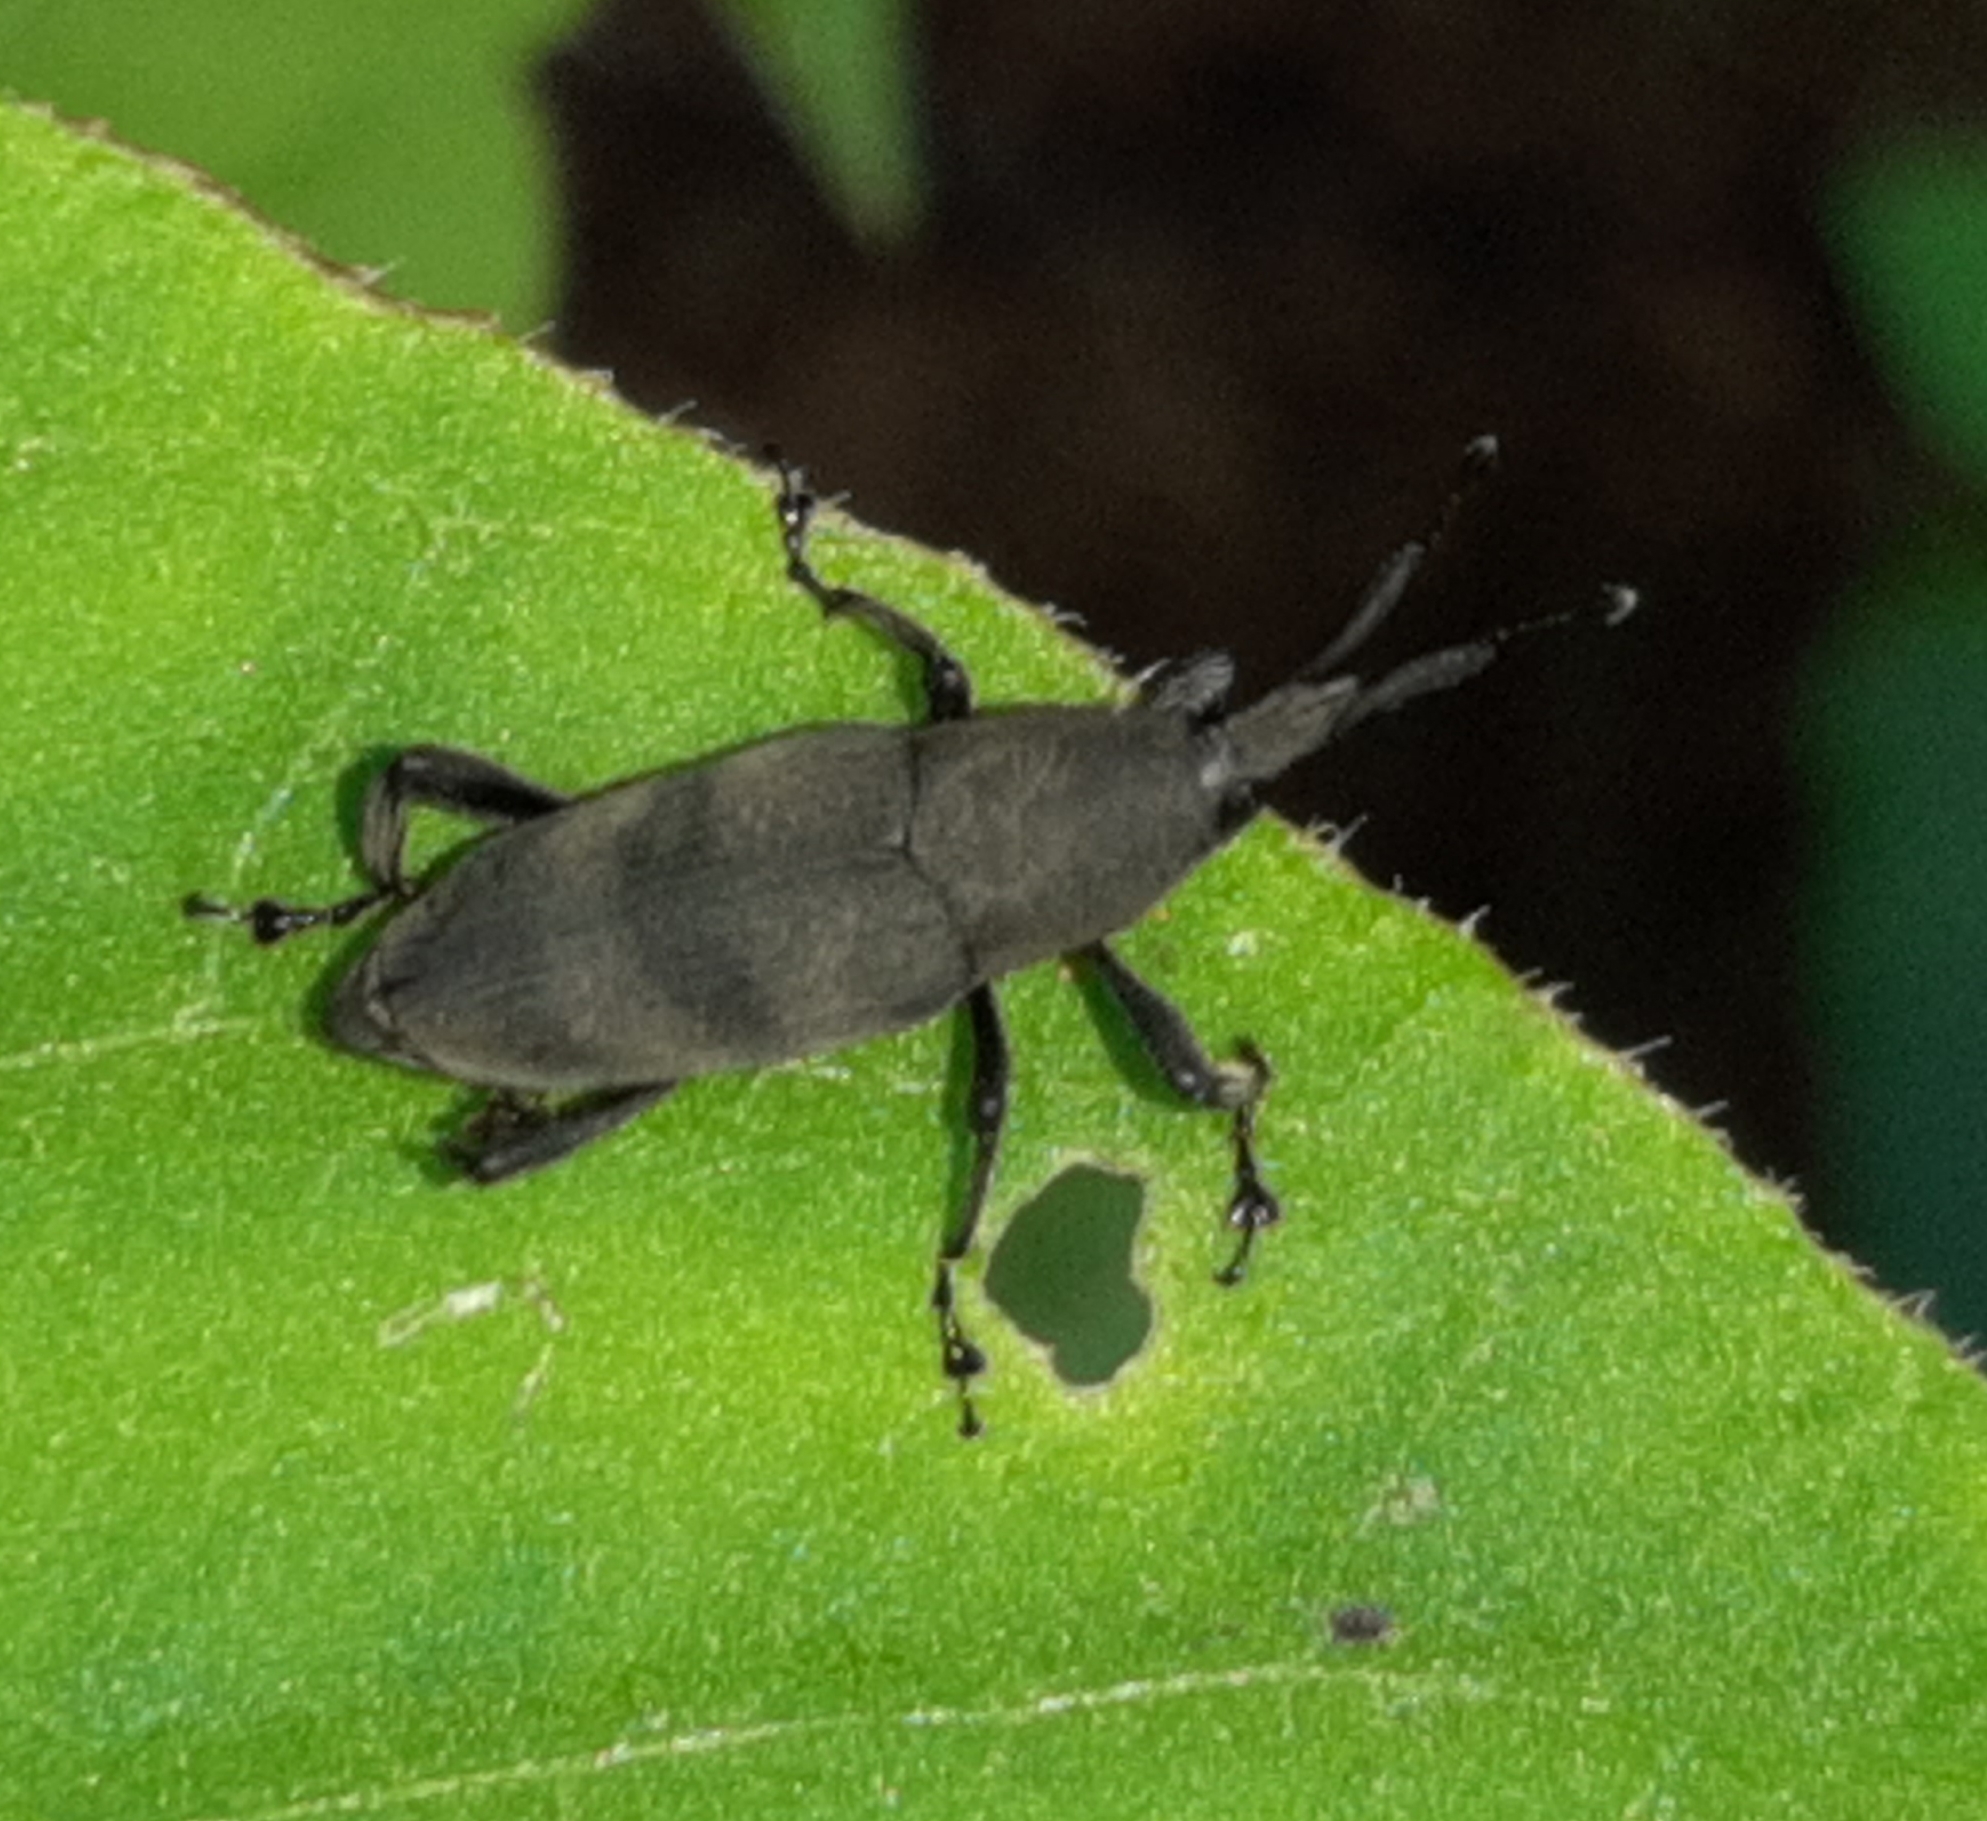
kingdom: Animalia
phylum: Arthropoda
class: Insecta
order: Coleoptera
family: Dryophthoridae
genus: Rhodobaenus
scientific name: Rhodobaenus
